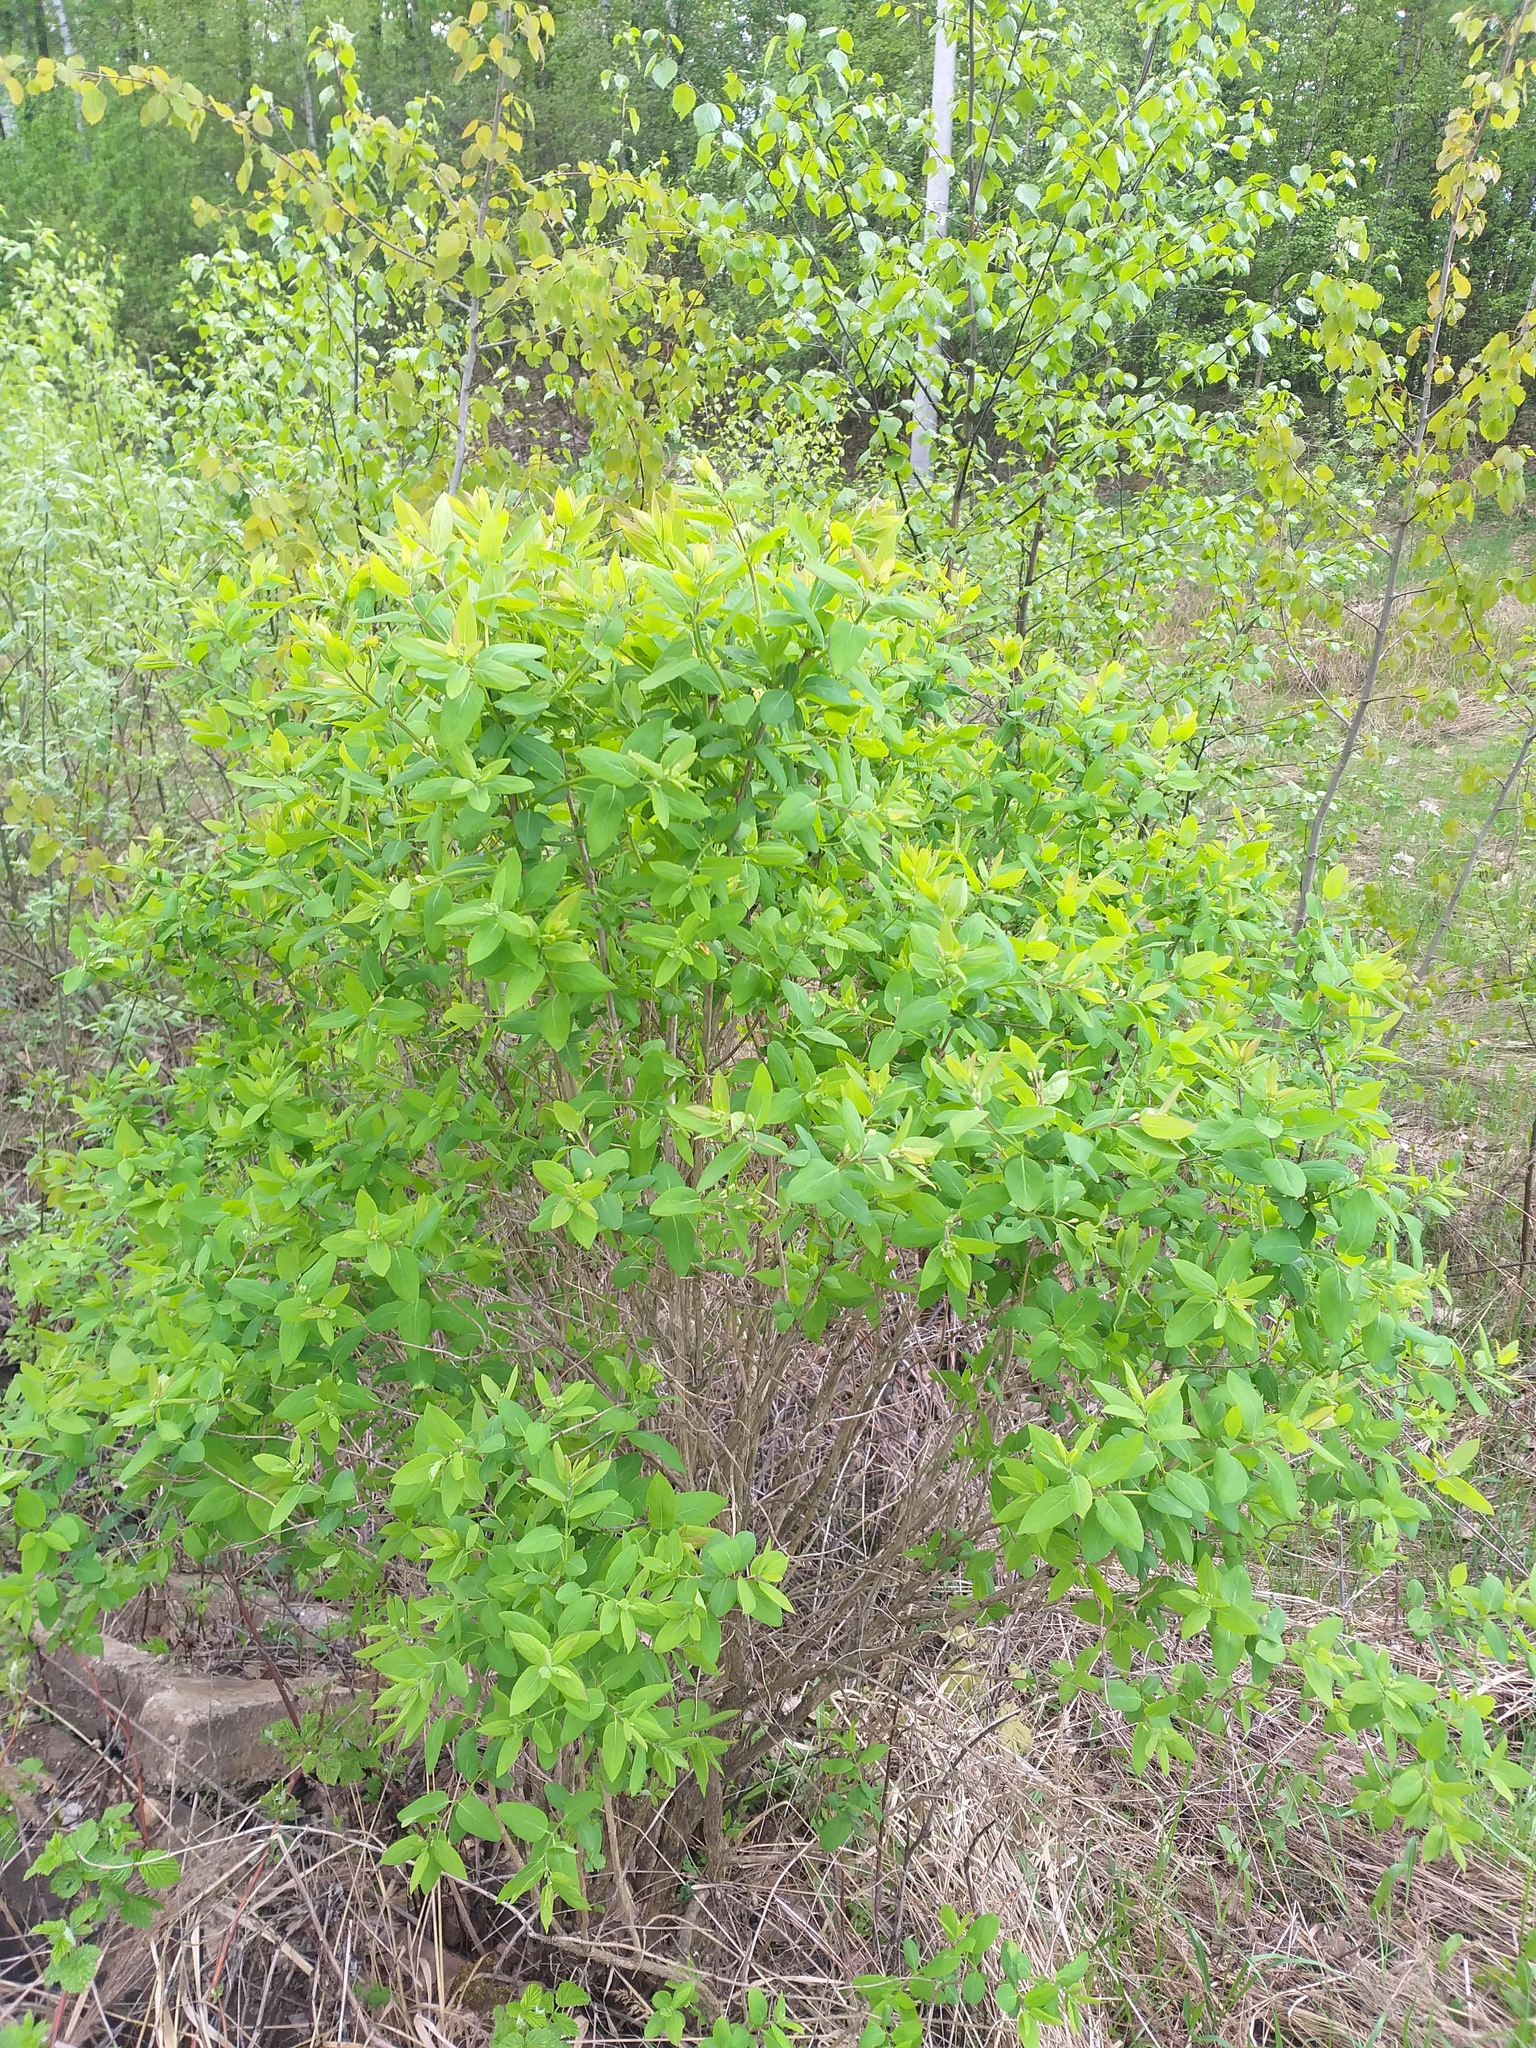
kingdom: Plantae
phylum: Tracheophyta
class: Magnoliopsida
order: Dipsacales
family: Caprifoliaceae
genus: Lonicera
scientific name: Lonicera tatarica
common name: Tatarian honeysuckle
